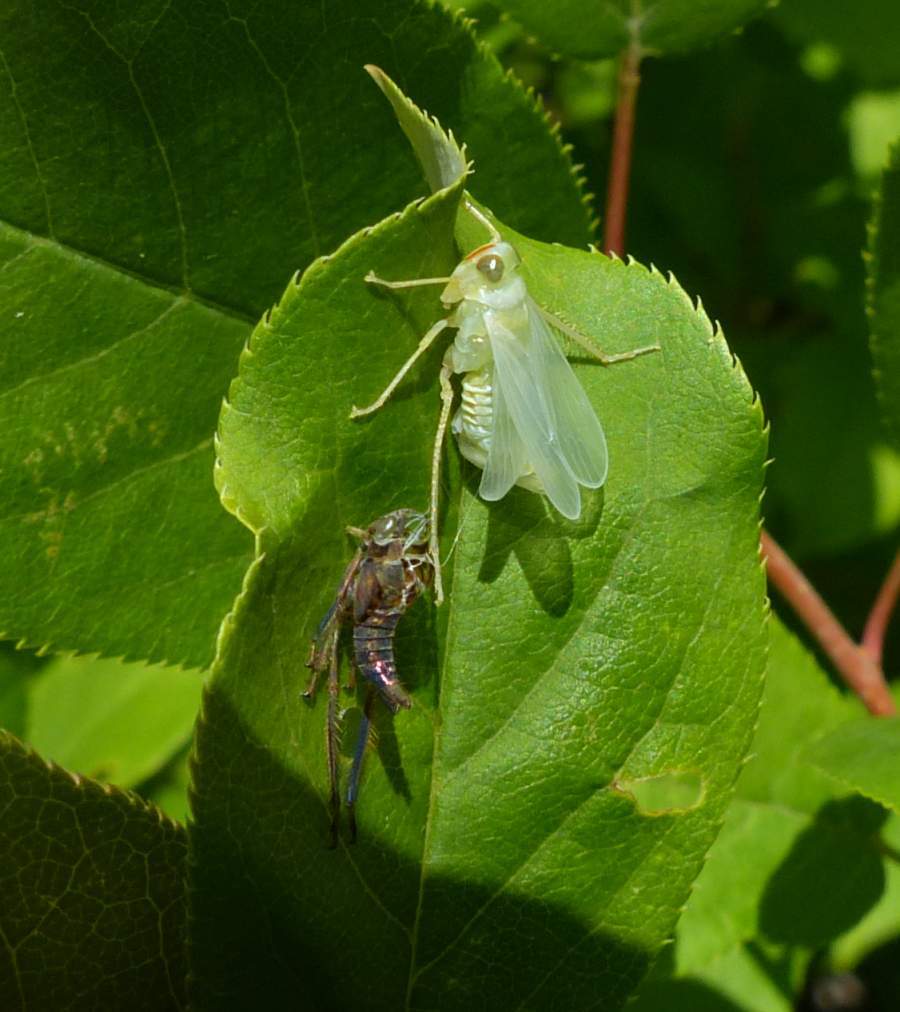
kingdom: Animalia
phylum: Arthropoda
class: Insecta
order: Hemiptera
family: Cicadellidae
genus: Jikradia
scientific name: Jikradia olitoria
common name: Coppery leafhopper
